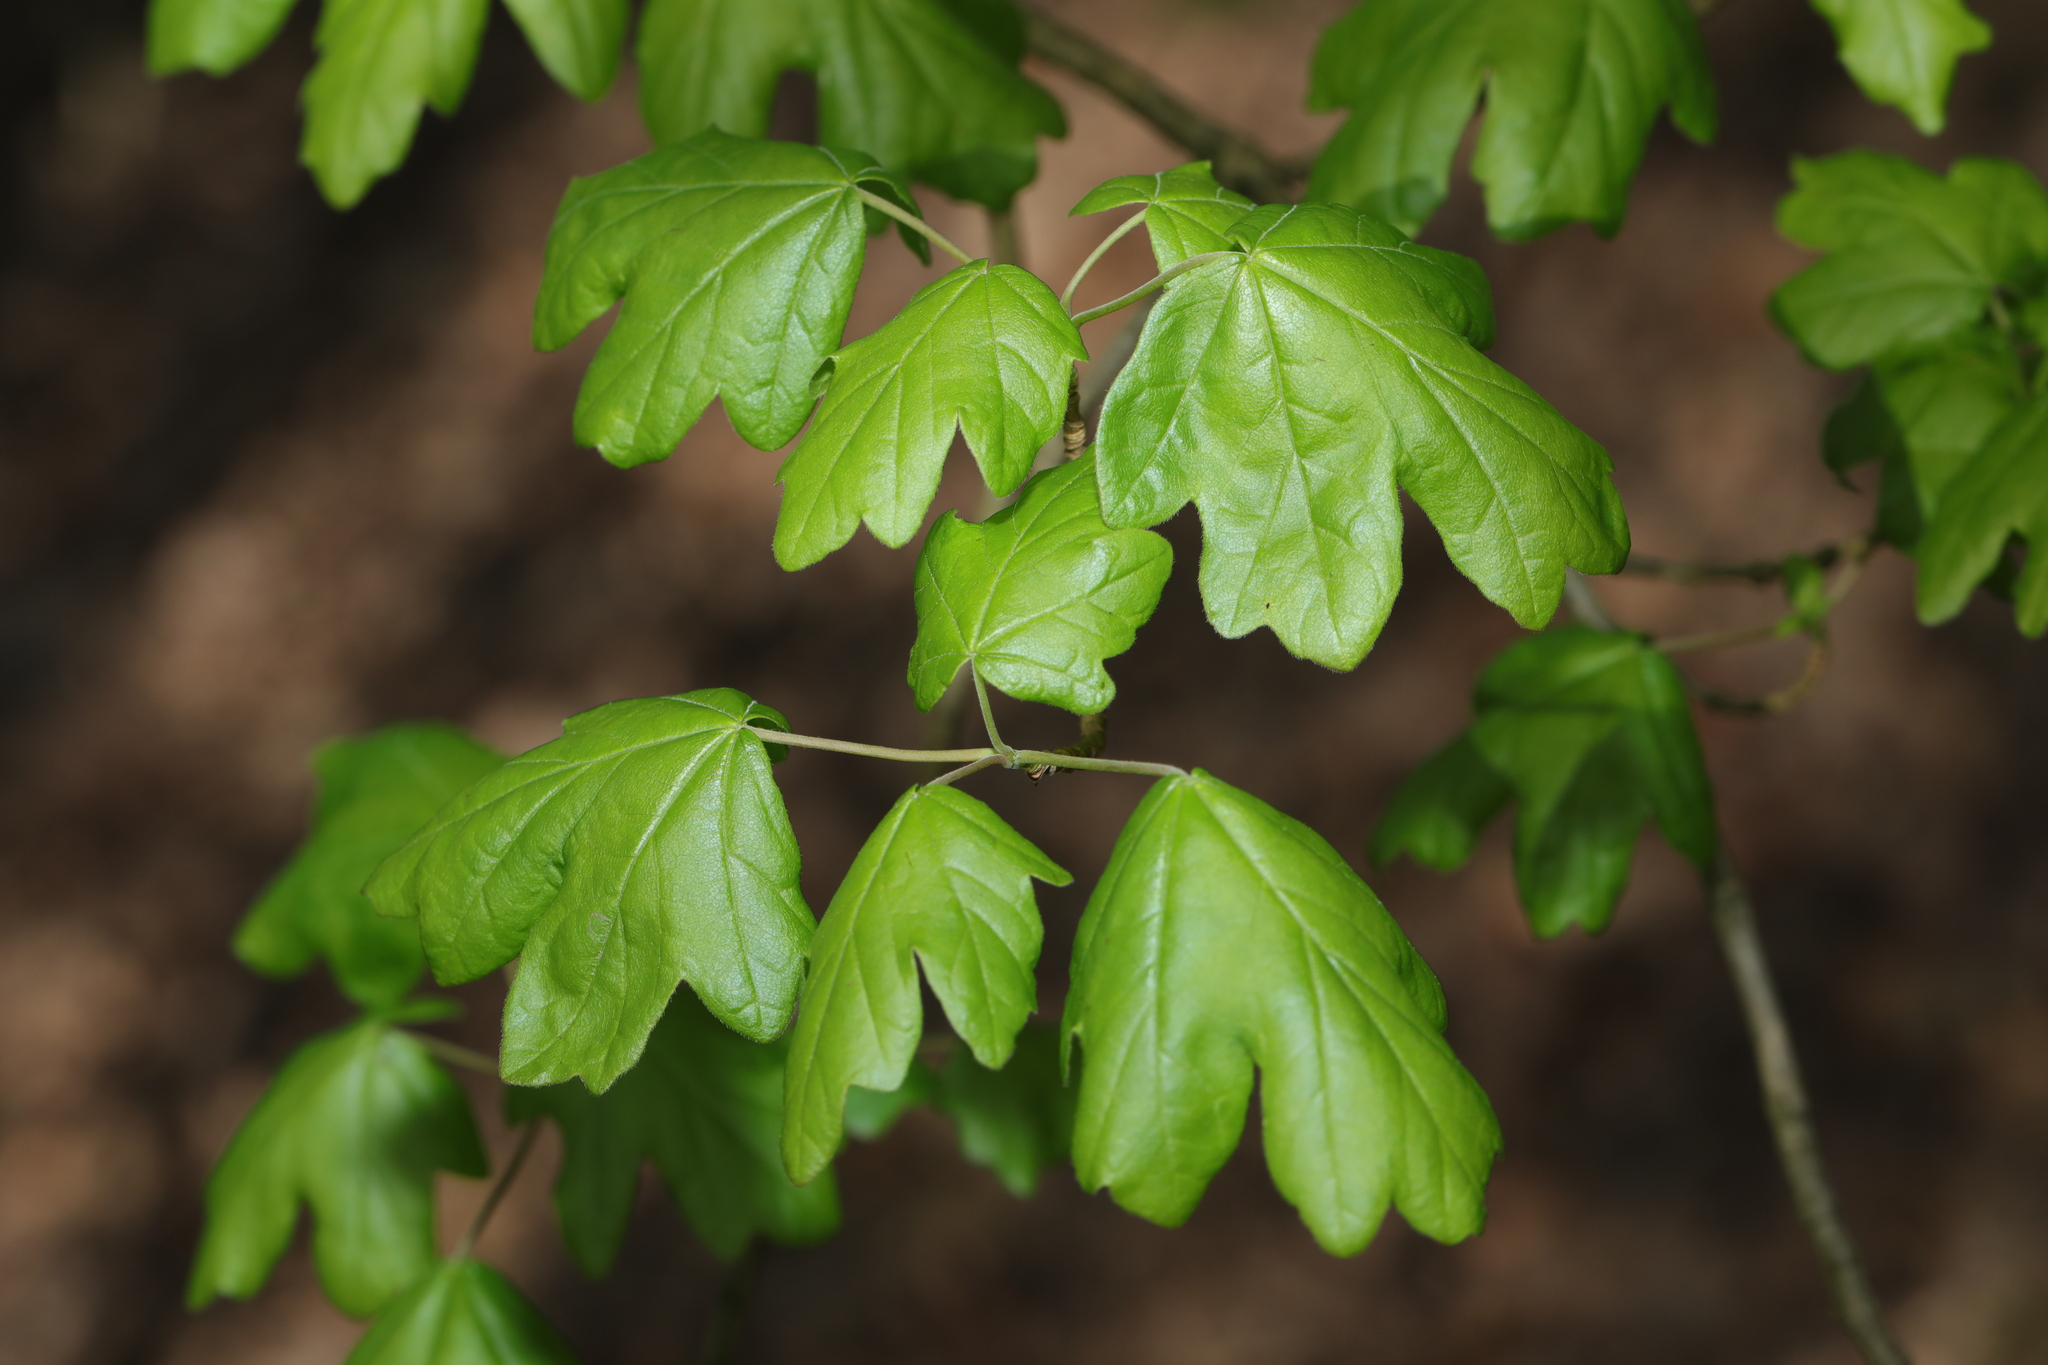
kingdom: Plantae
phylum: Tracheophyta
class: Magnoliopsida
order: Sapindales
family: Sapindaceae
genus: Acer
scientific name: Acer campestre
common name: Field maple
